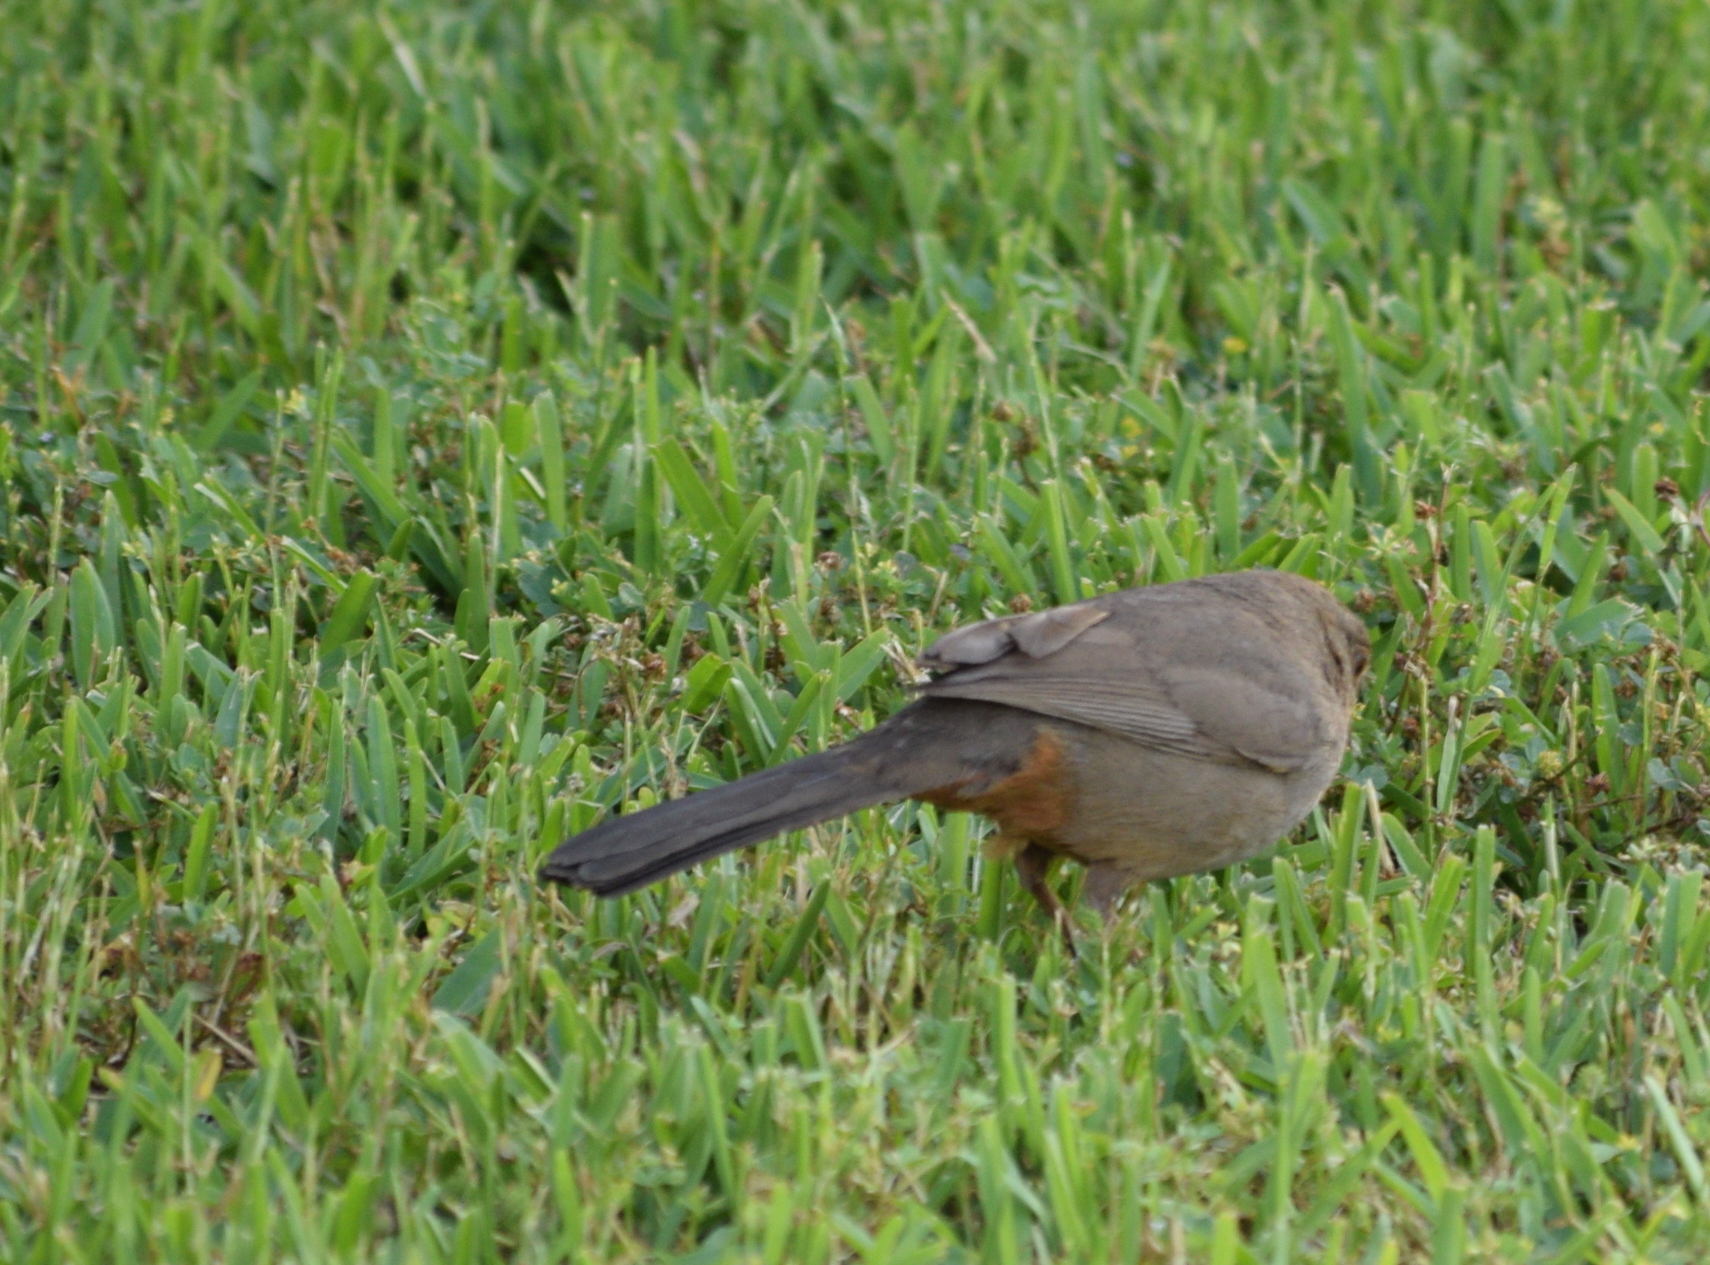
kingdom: Animalia
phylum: Chordata
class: Aves
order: Passeriformes
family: Passerellidae
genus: Melozone
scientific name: Melozone crissalis
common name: California towhee
